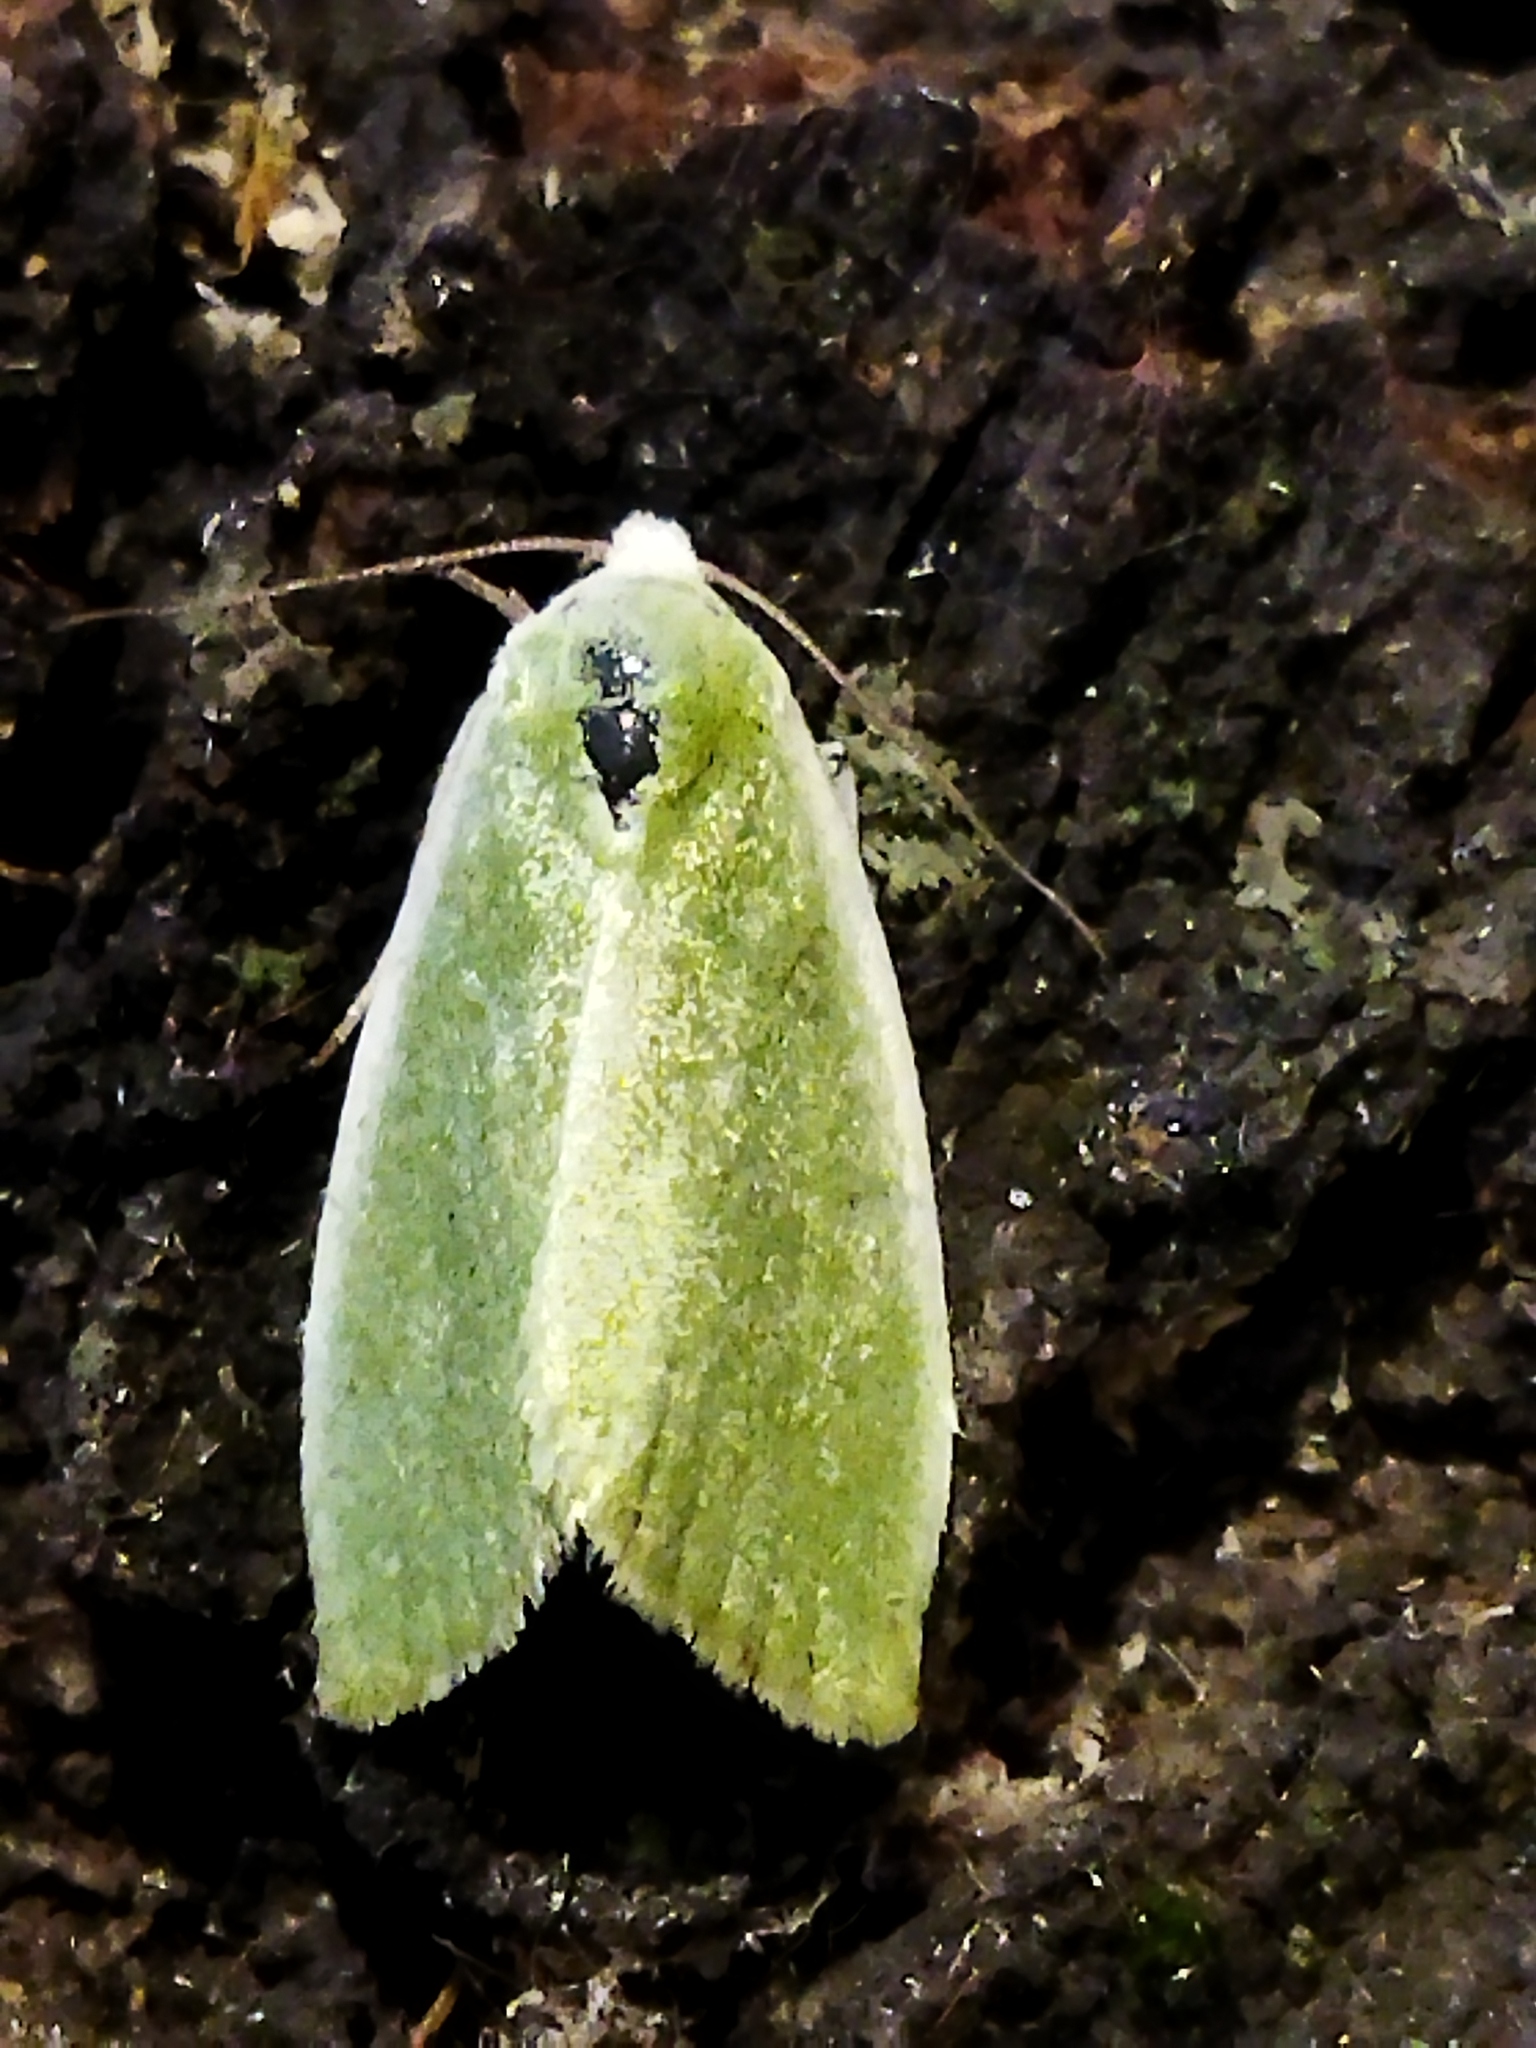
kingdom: Animalia
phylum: Arthropoda
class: Insecta
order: Lepidoptera
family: Nolidae
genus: Earias
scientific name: Earias clorana
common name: Cream-bordered green pea
